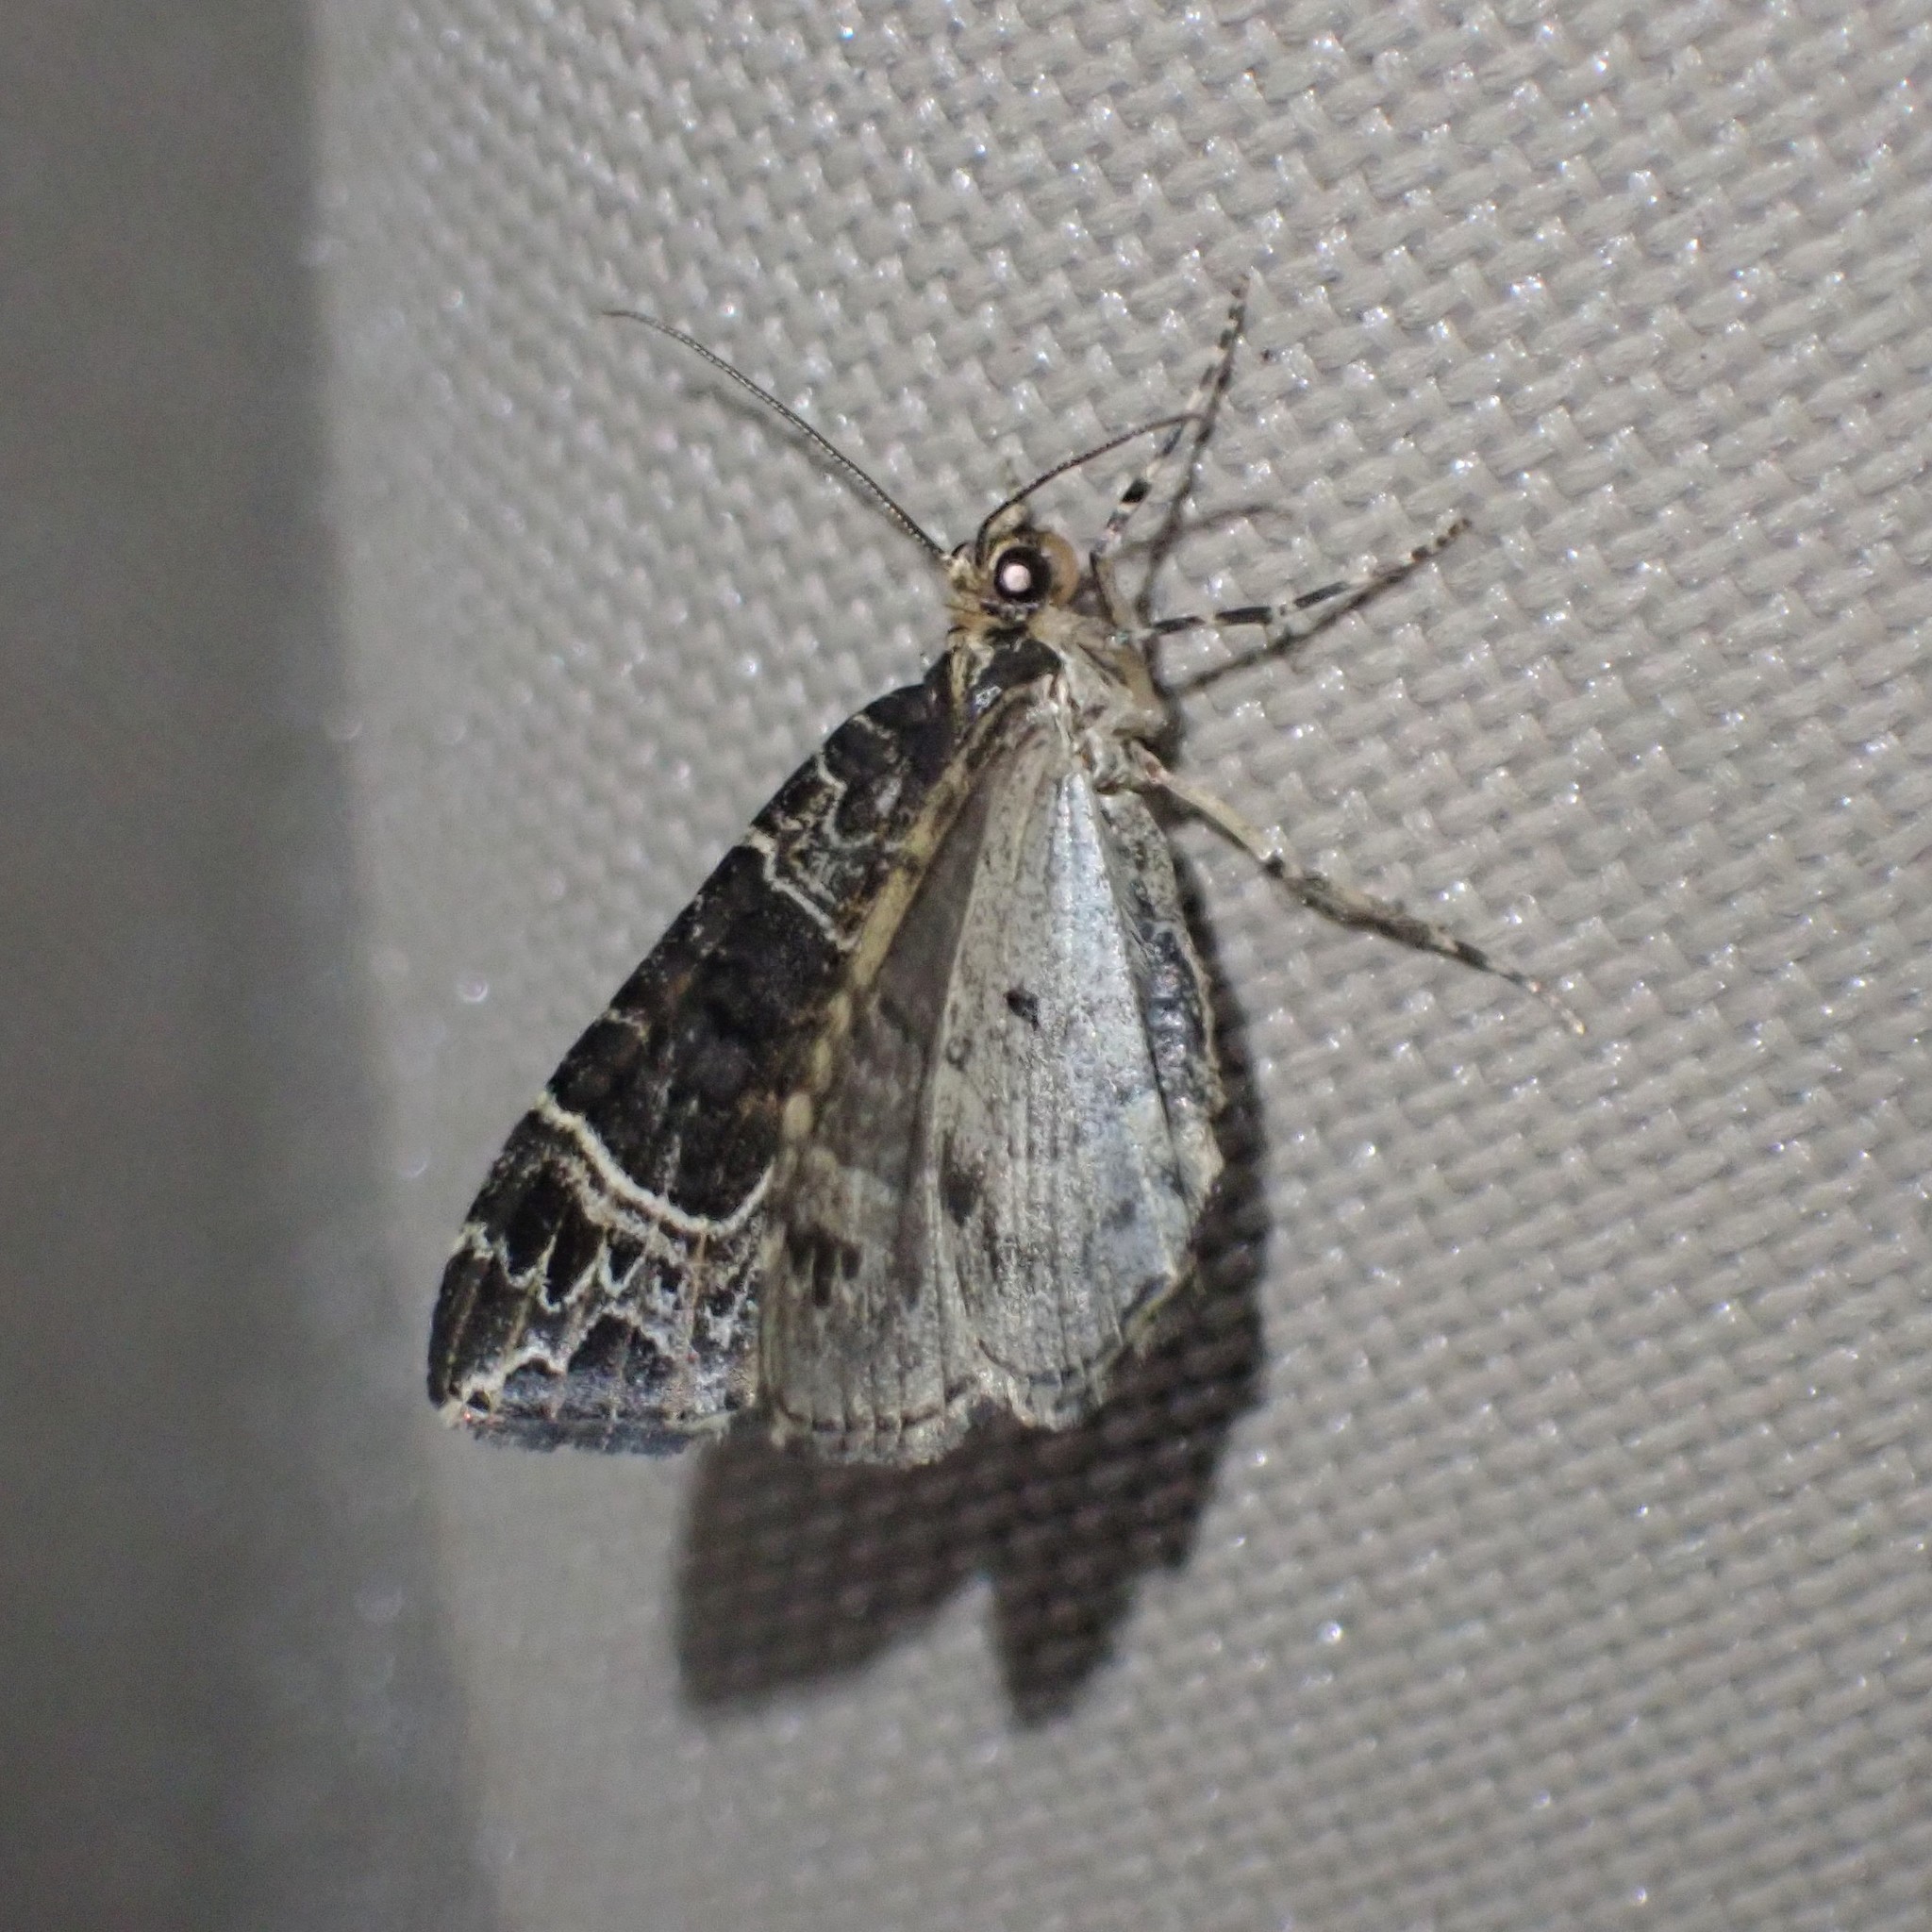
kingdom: Animalia
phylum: Arthropoda
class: Insecta
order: Lepidoptera
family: Geometridae
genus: Ecliptopera
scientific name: Ecliptopera silaceata
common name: Small phoenix
